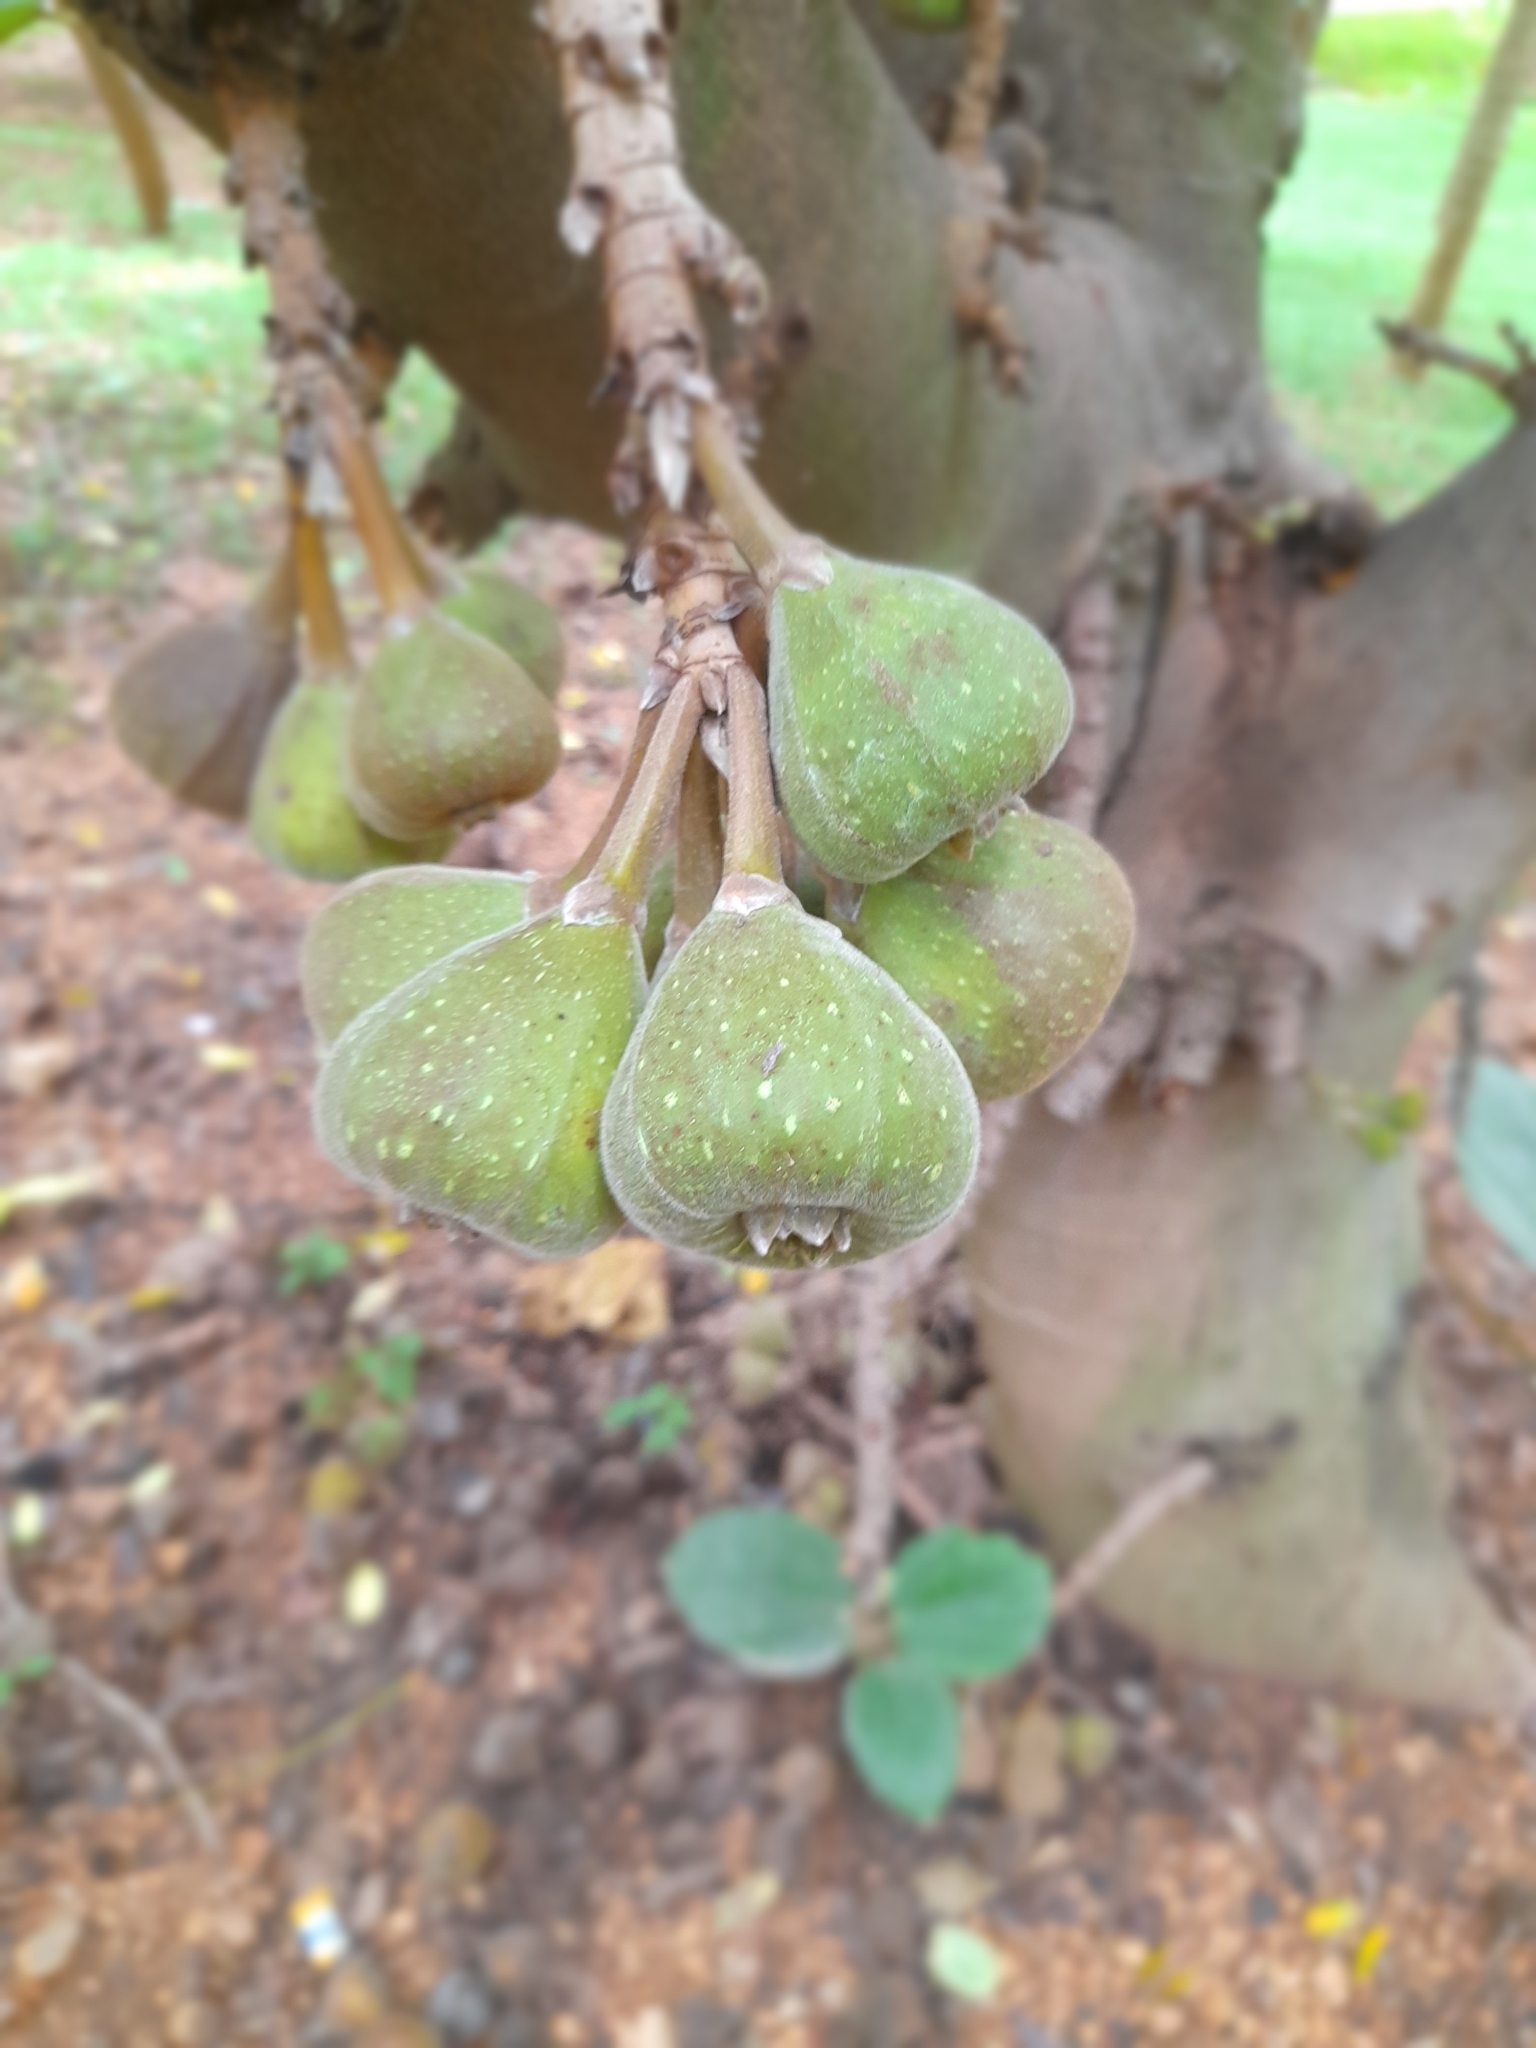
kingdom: Plantae
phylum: Tracheophyta
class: Magnoliopsida
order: Rosales
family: Moraceae
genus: Ficus
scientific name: Ficus auriculata
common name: Roxburgh fig
